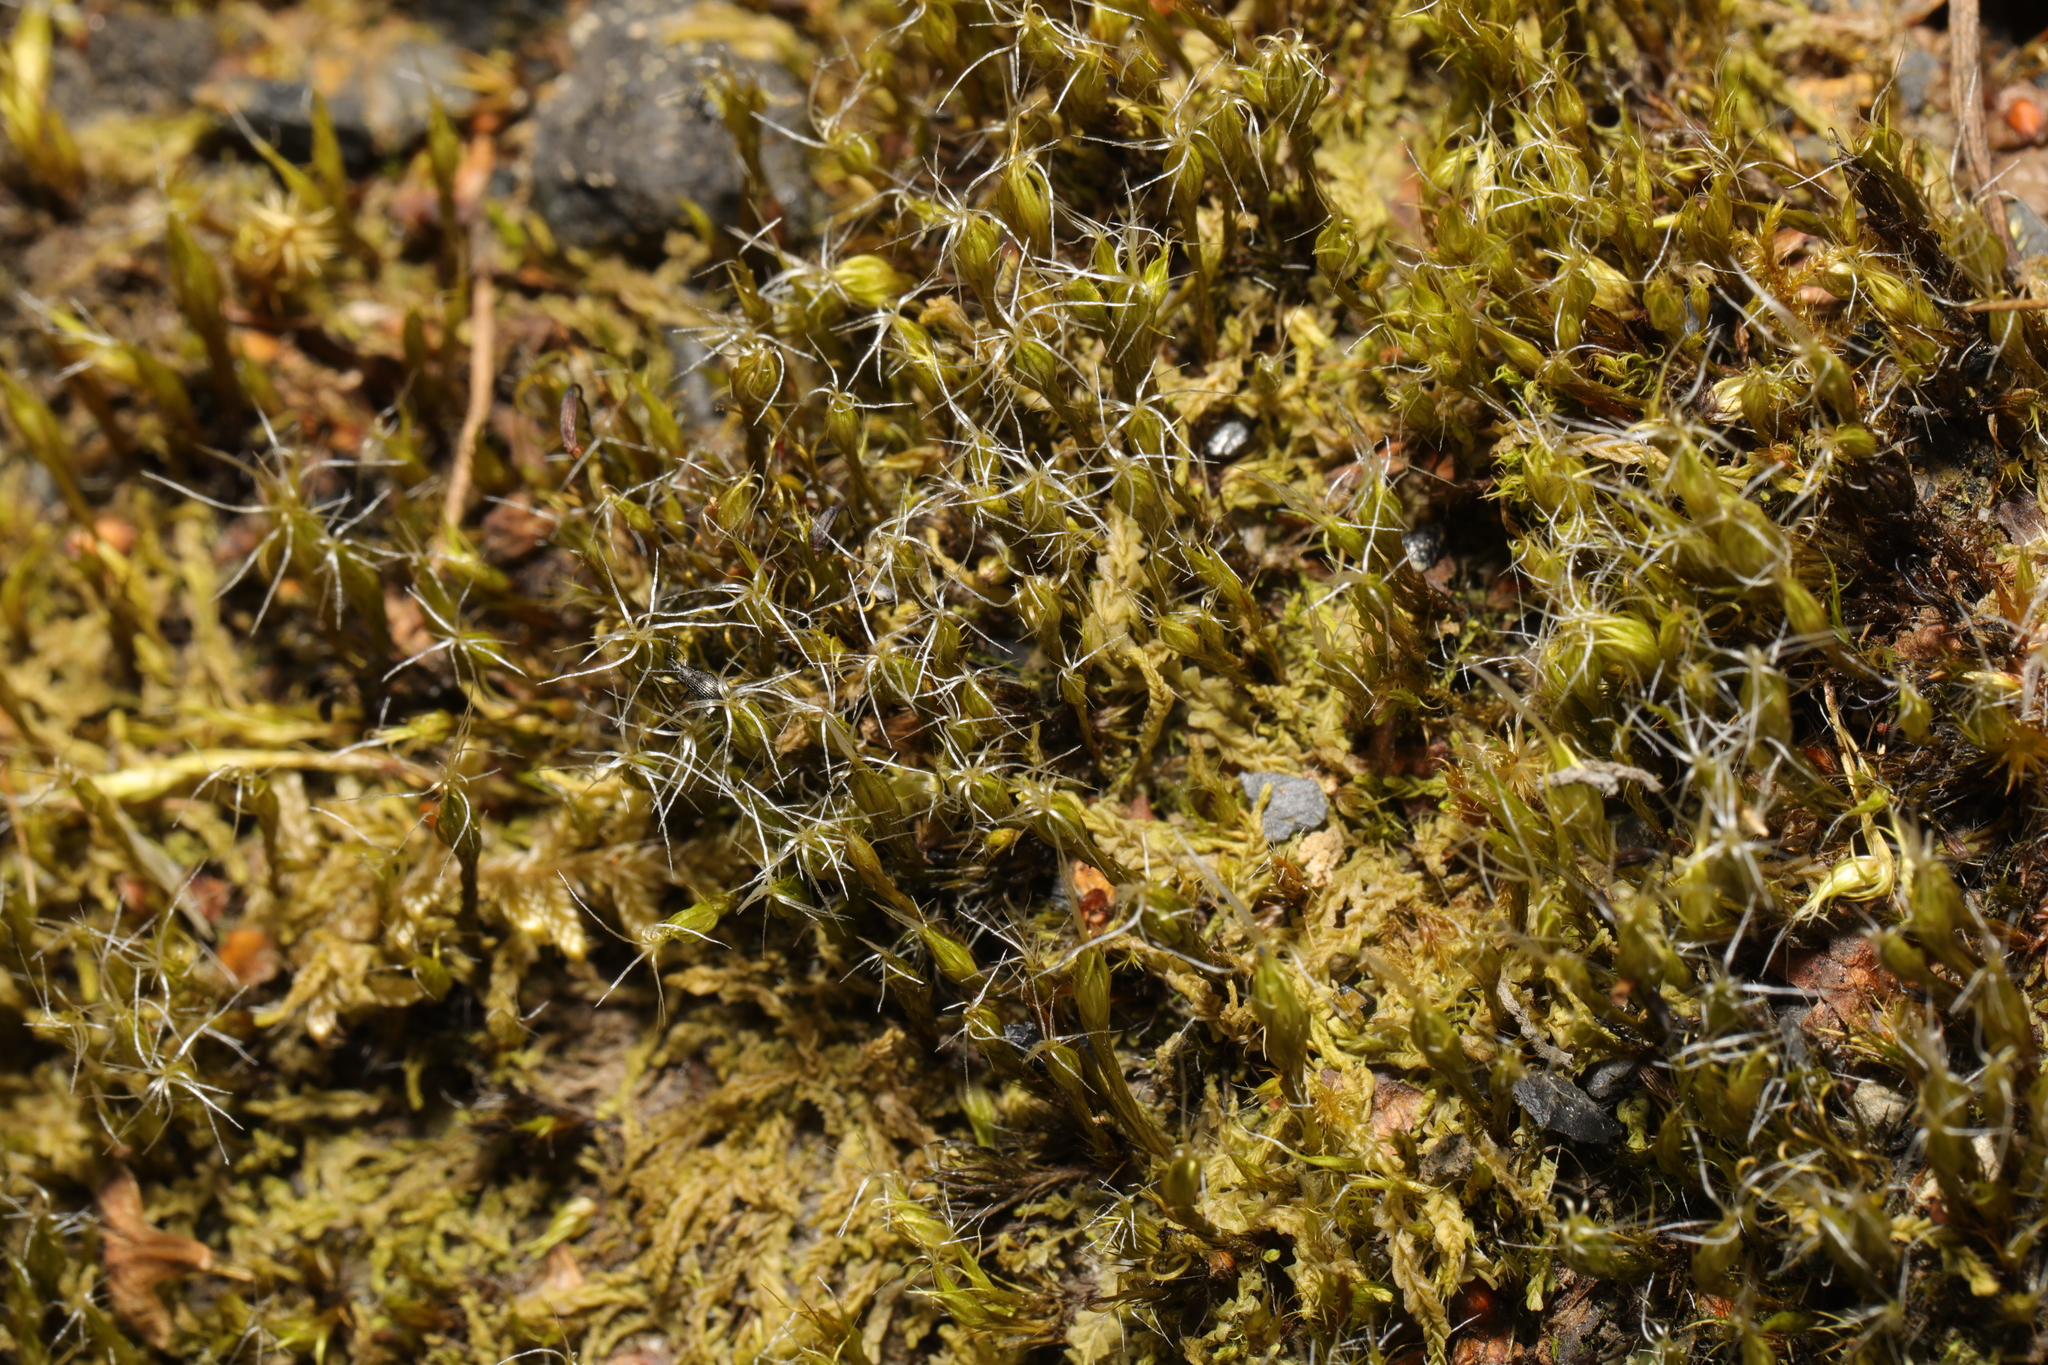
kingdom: Plantae
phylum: Bryophyta
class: Bryopsida
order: Dicranales
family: Leucobryaceae
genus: Campylopus
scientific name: Campylopus introflexus
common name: Heath star moss
